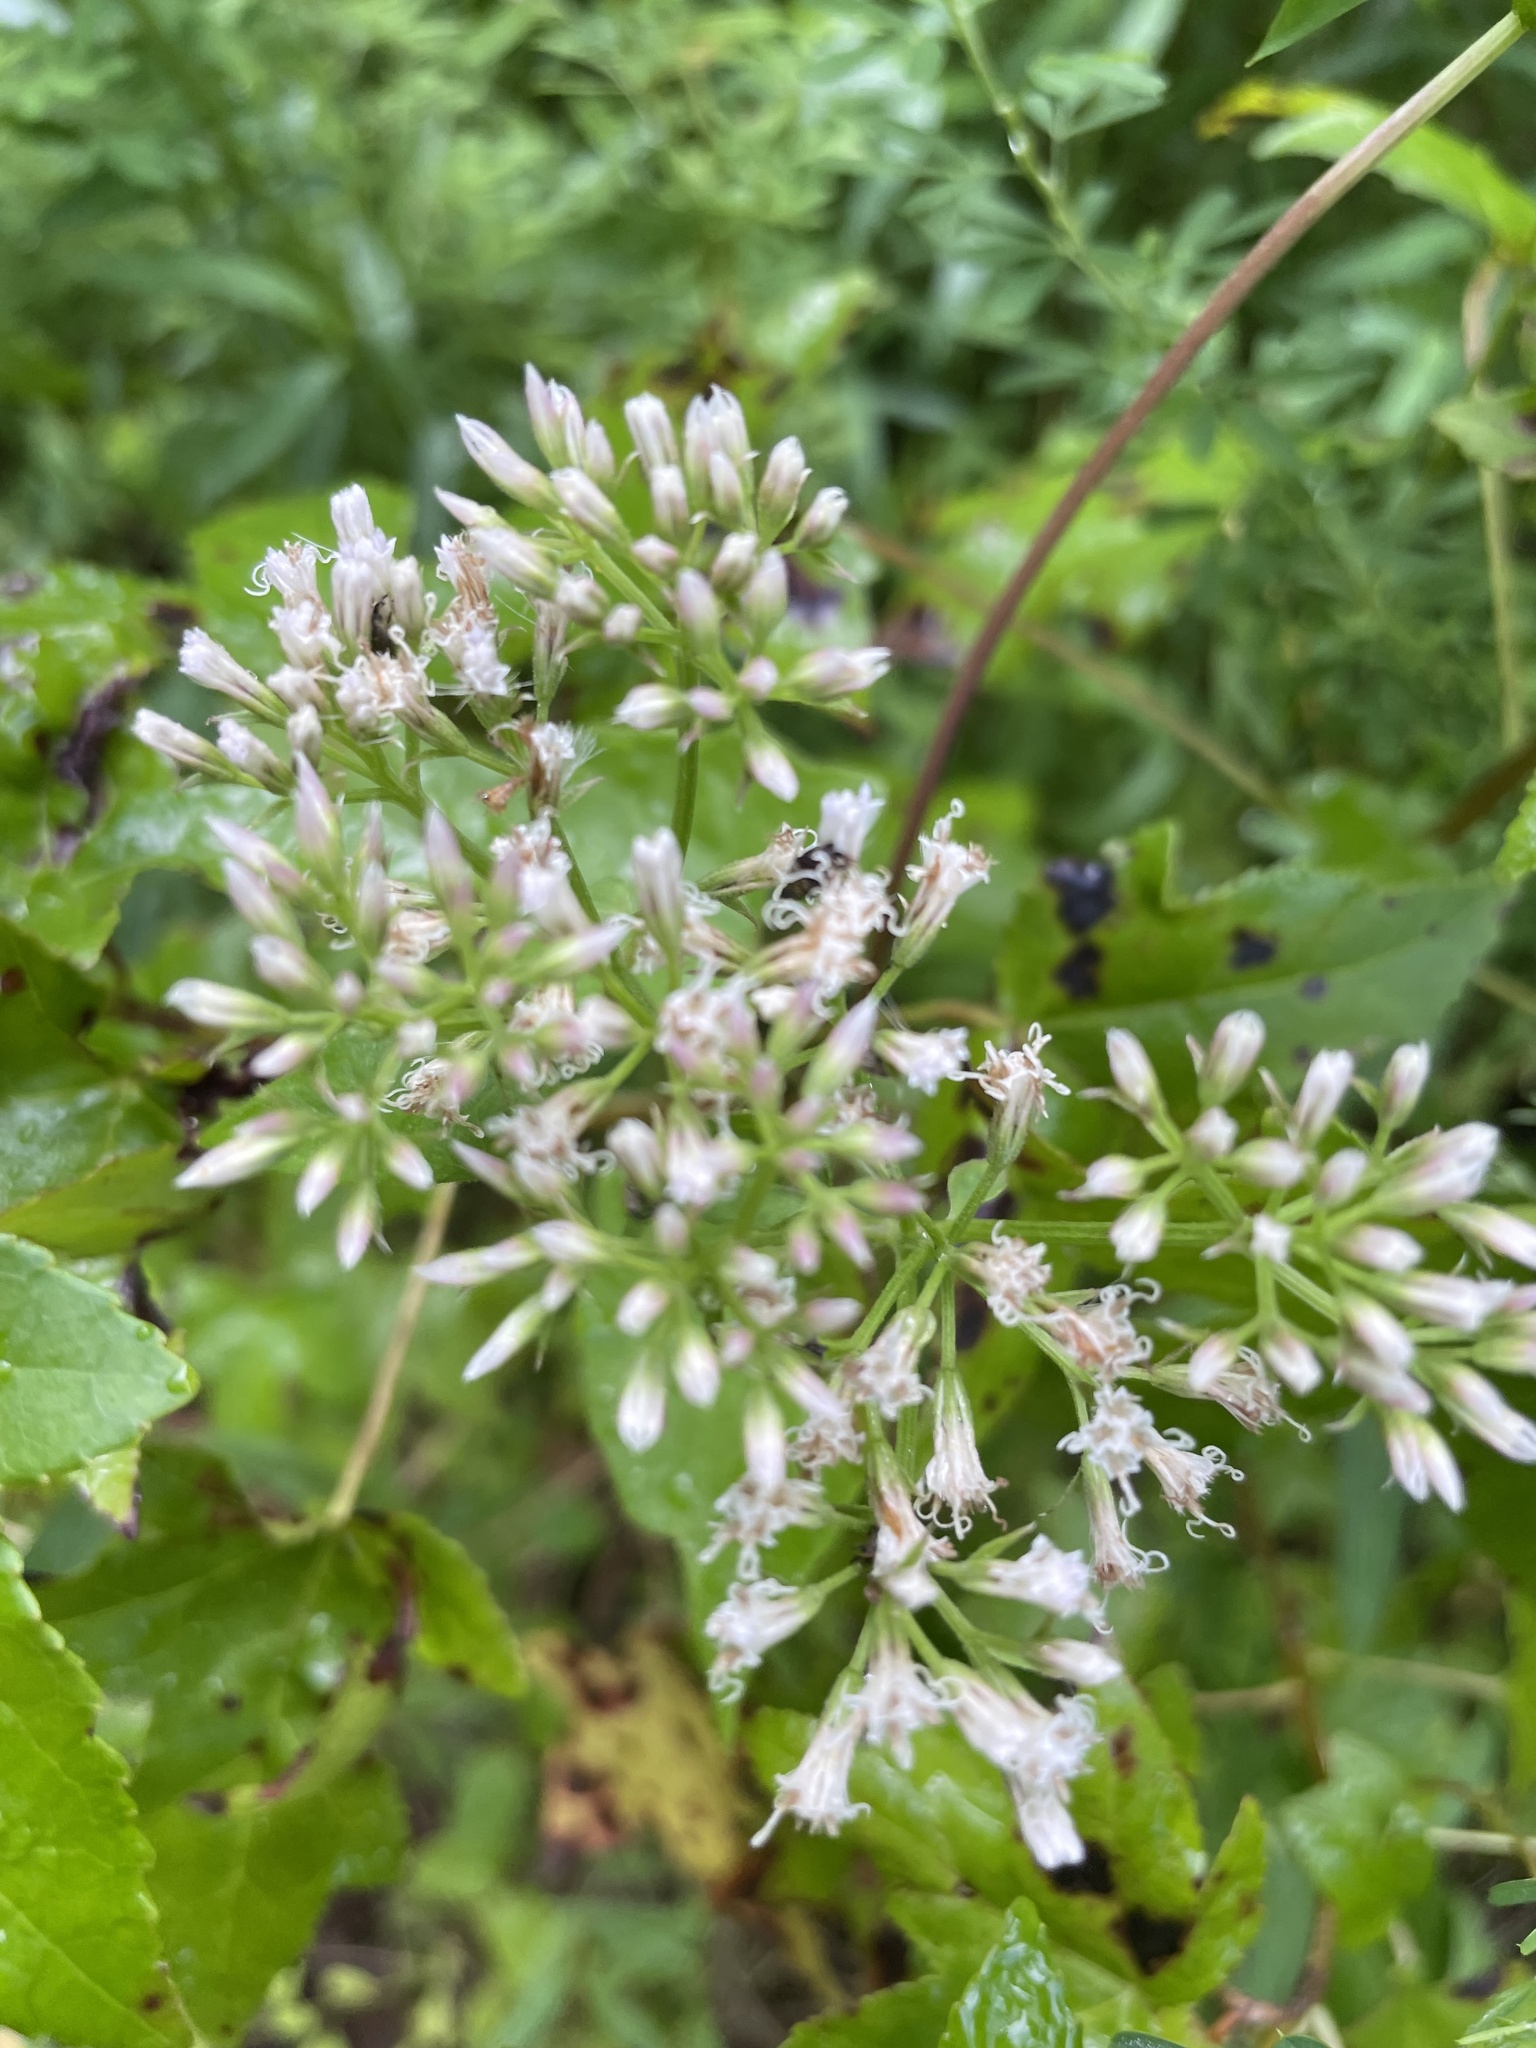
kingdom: Plantae
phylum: Tracheophyta
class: Magnoliopsida
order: Asterales
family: Asteraceae
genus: Mikania
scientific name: Mikania scandens
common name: Climbing hempvine
